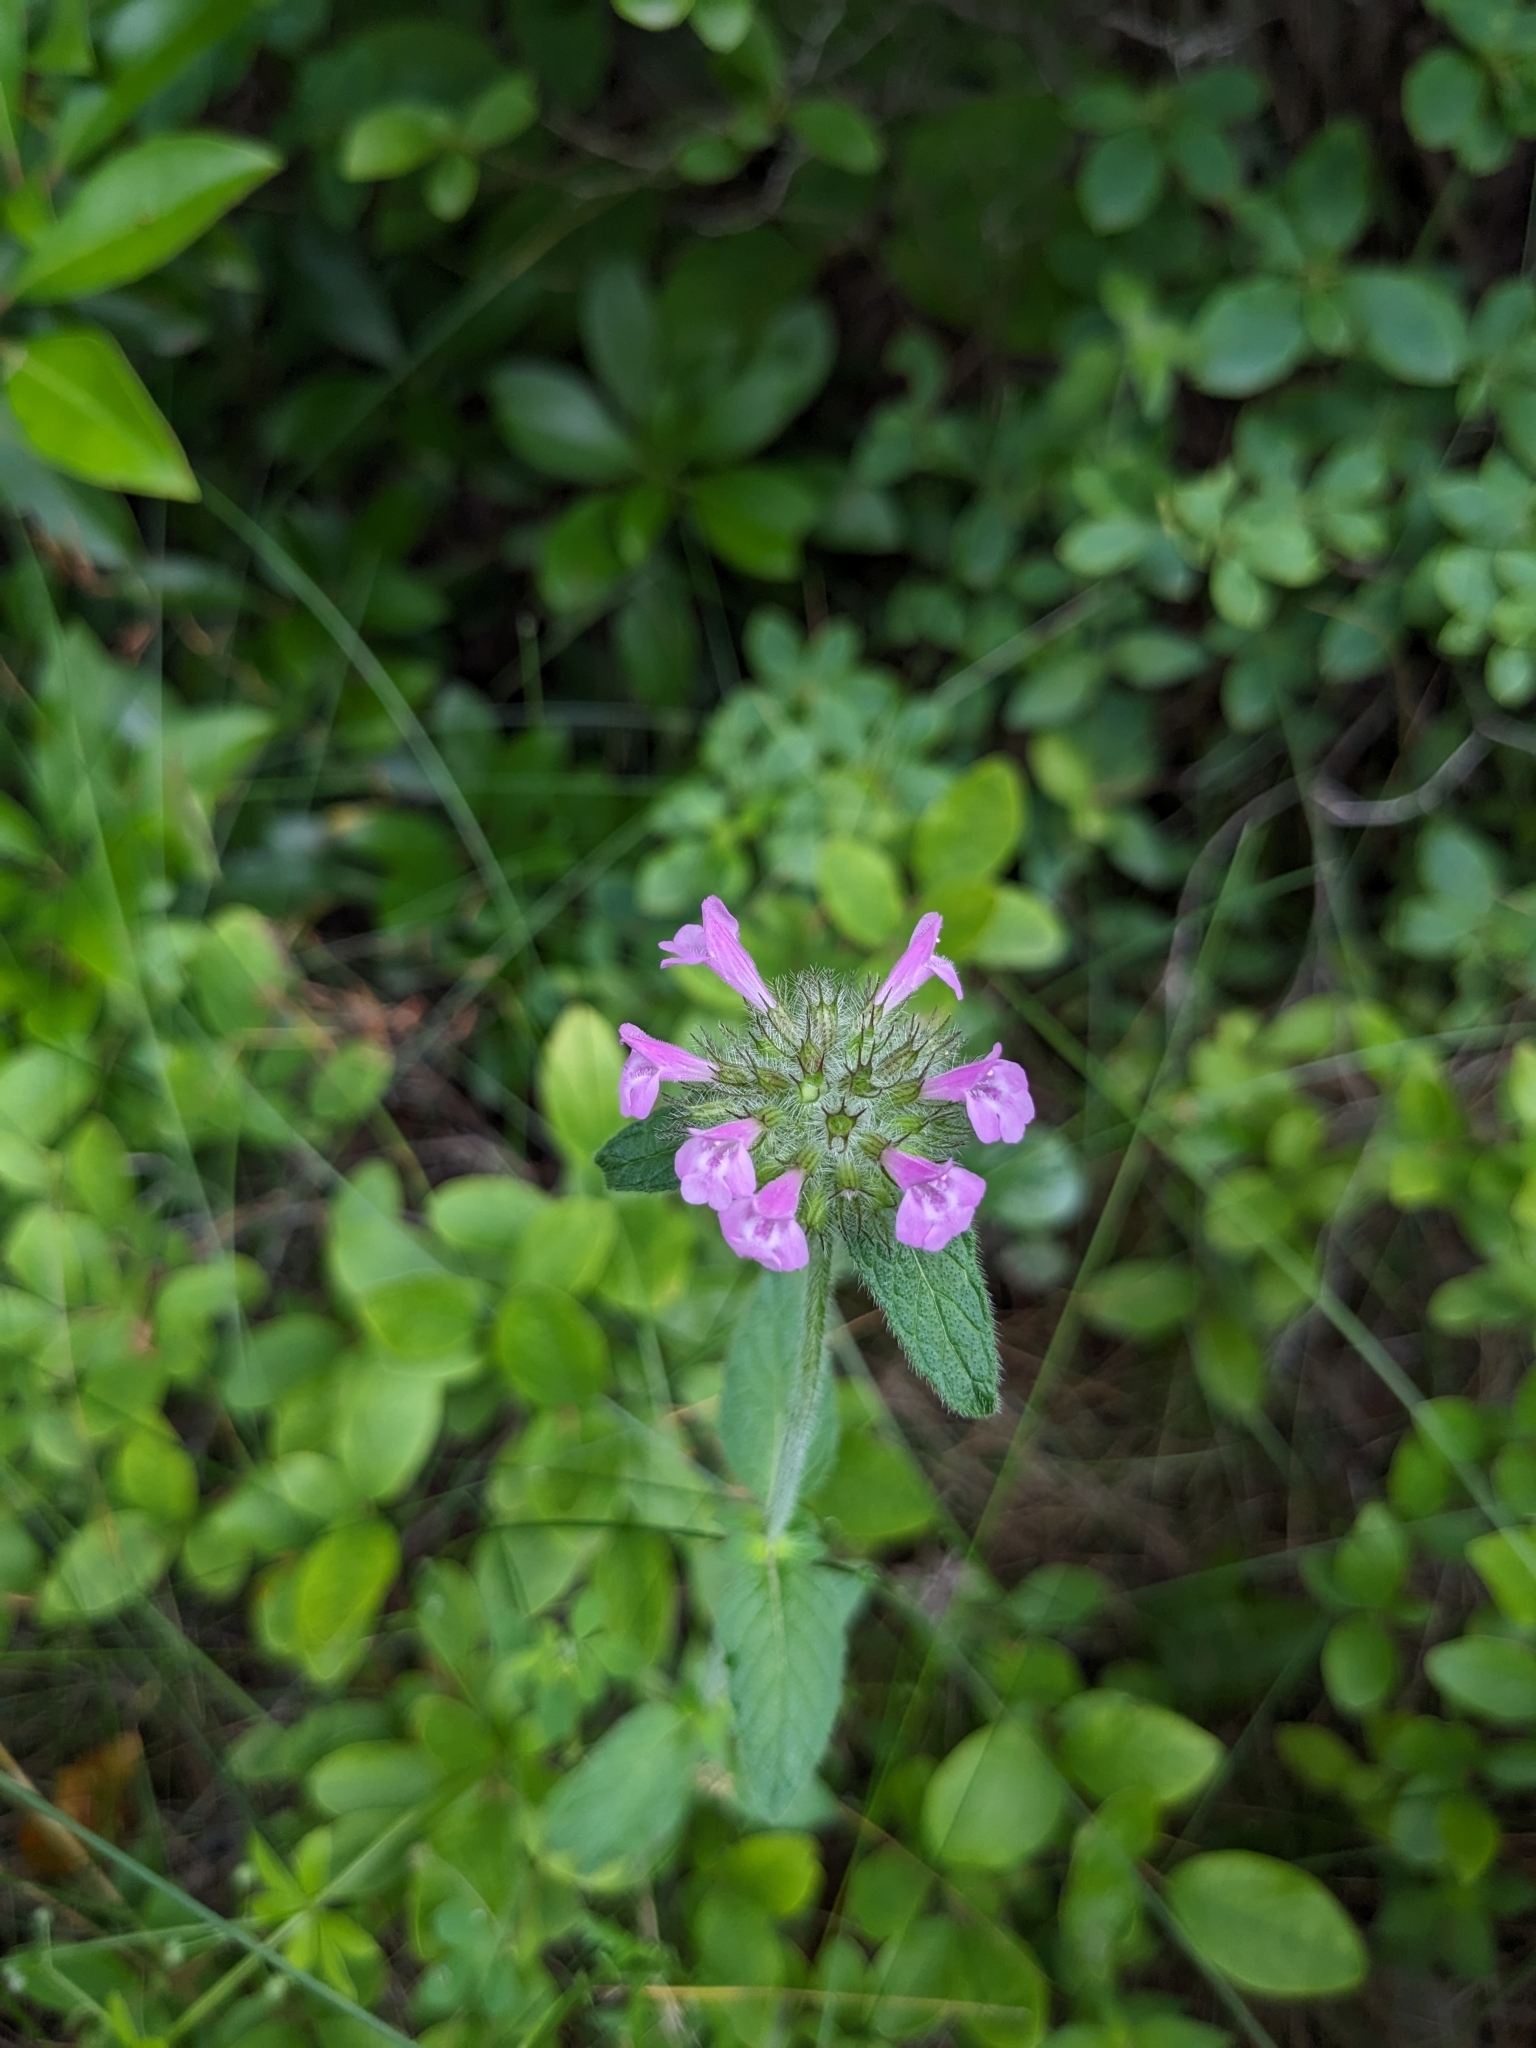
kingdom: Plantae
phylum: Tracheophyta
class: Magnoliopsida
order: Lamiales
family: Lamiaceae
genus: Clinopodium
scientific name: Clinopodium vulgare
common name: Wild basil
